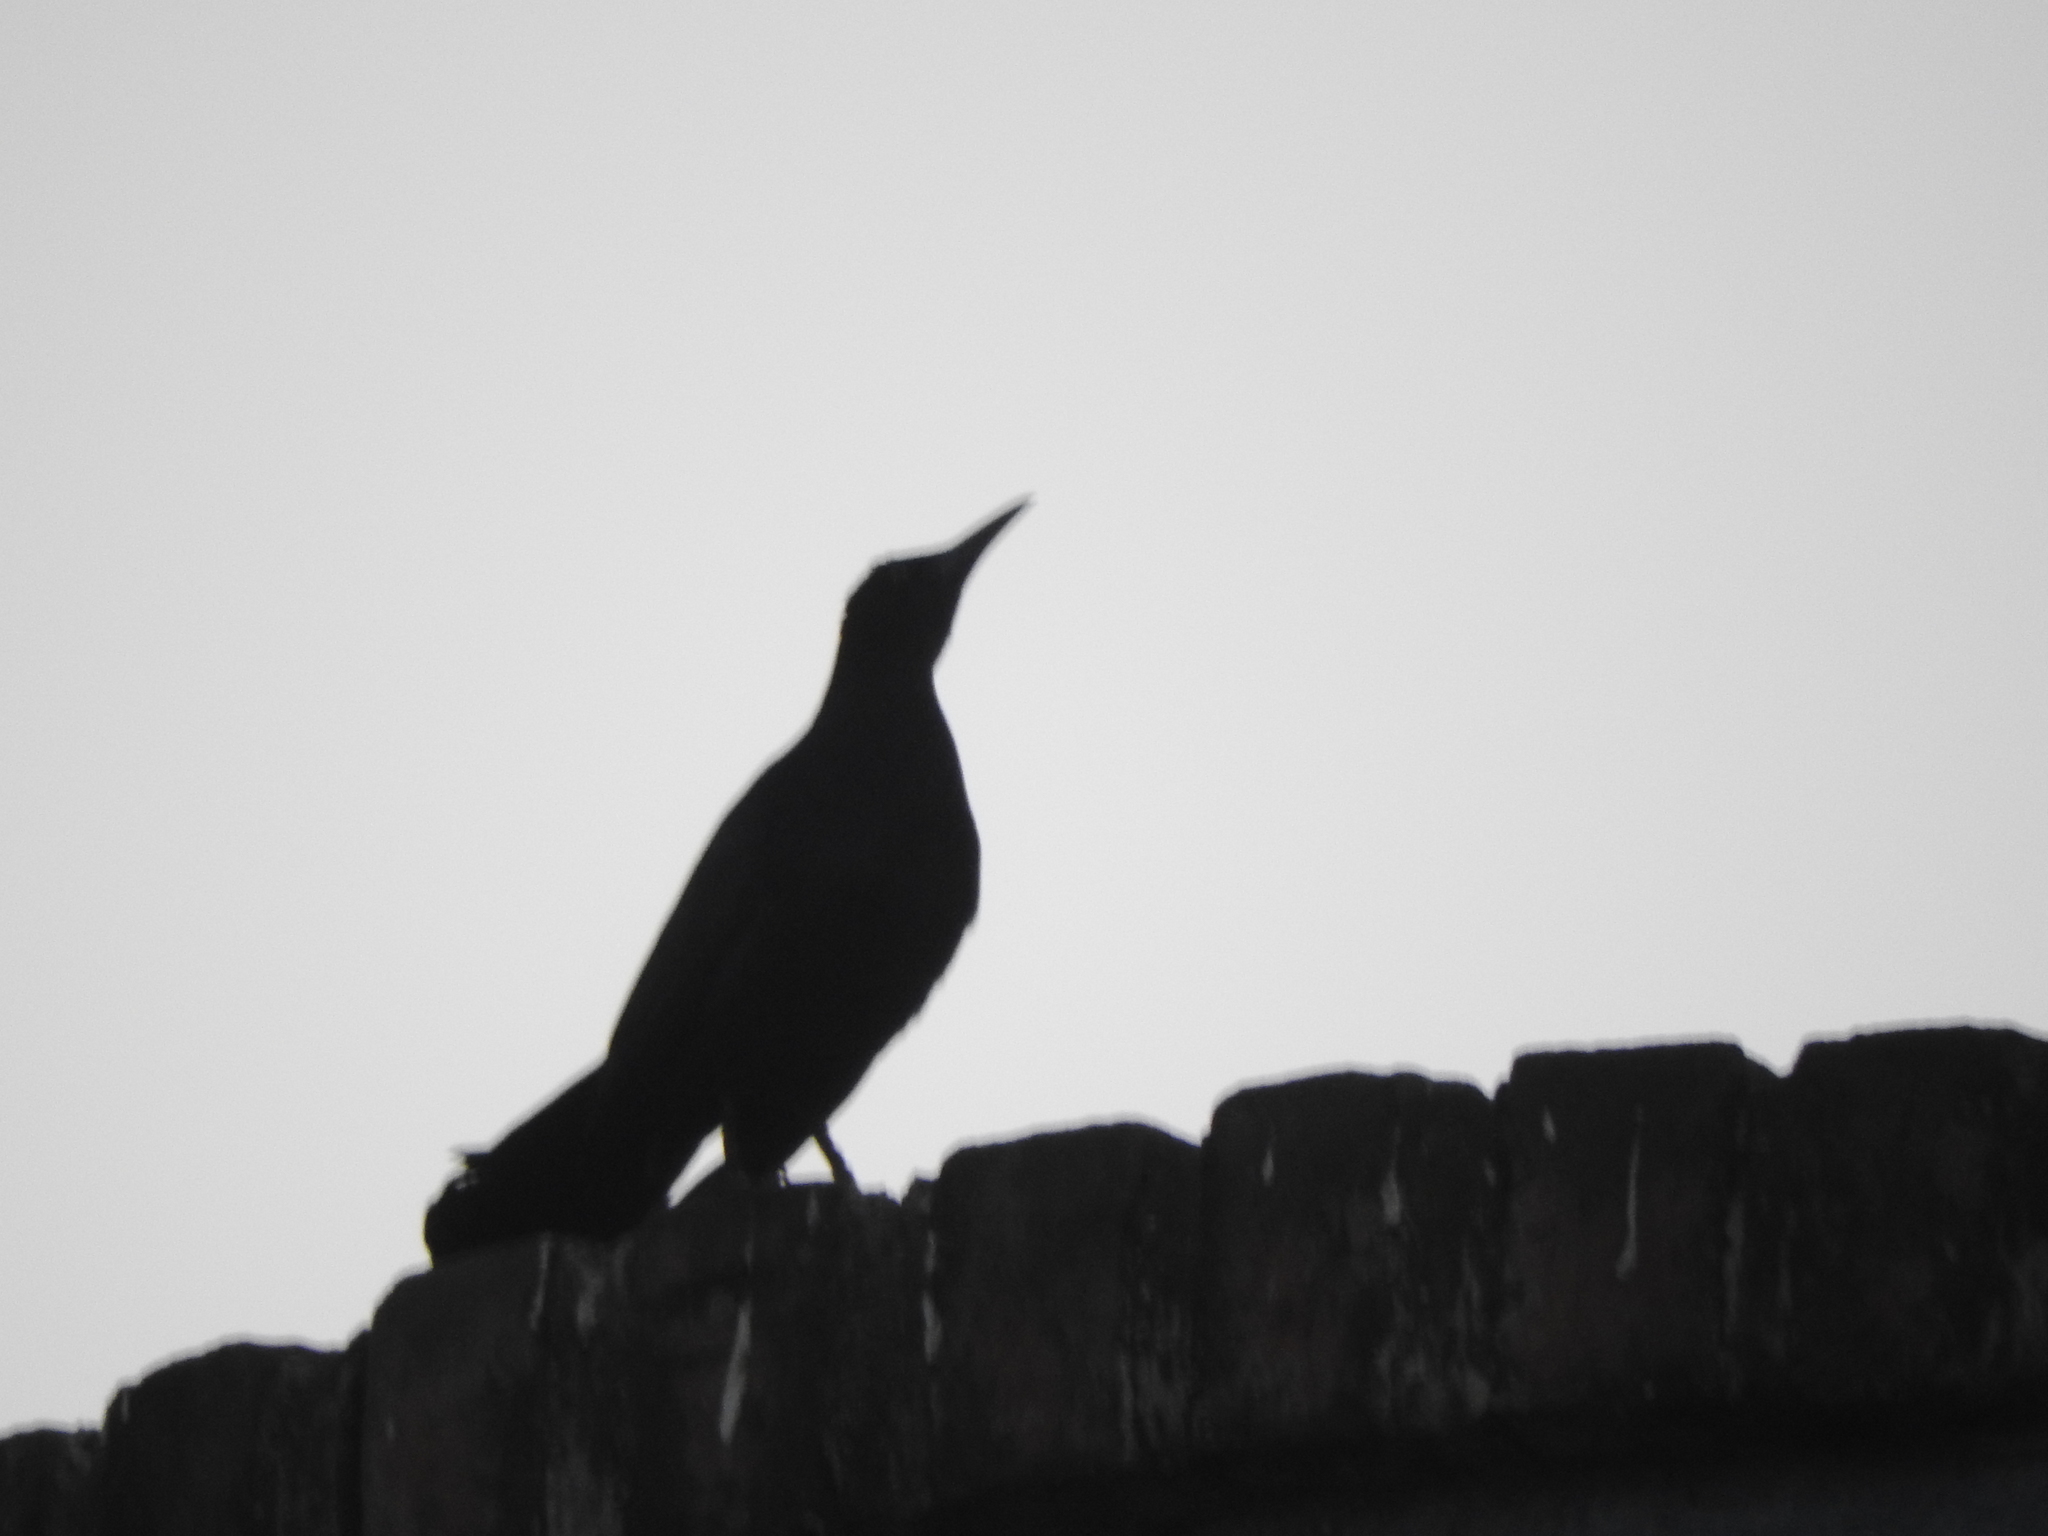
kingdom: Animalia
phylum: Chordata
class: Aves
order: Passeriformes
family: Icteridae
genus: Quiscalus
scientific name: Quiscalus mexicanus
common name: Great-tailed grackle
